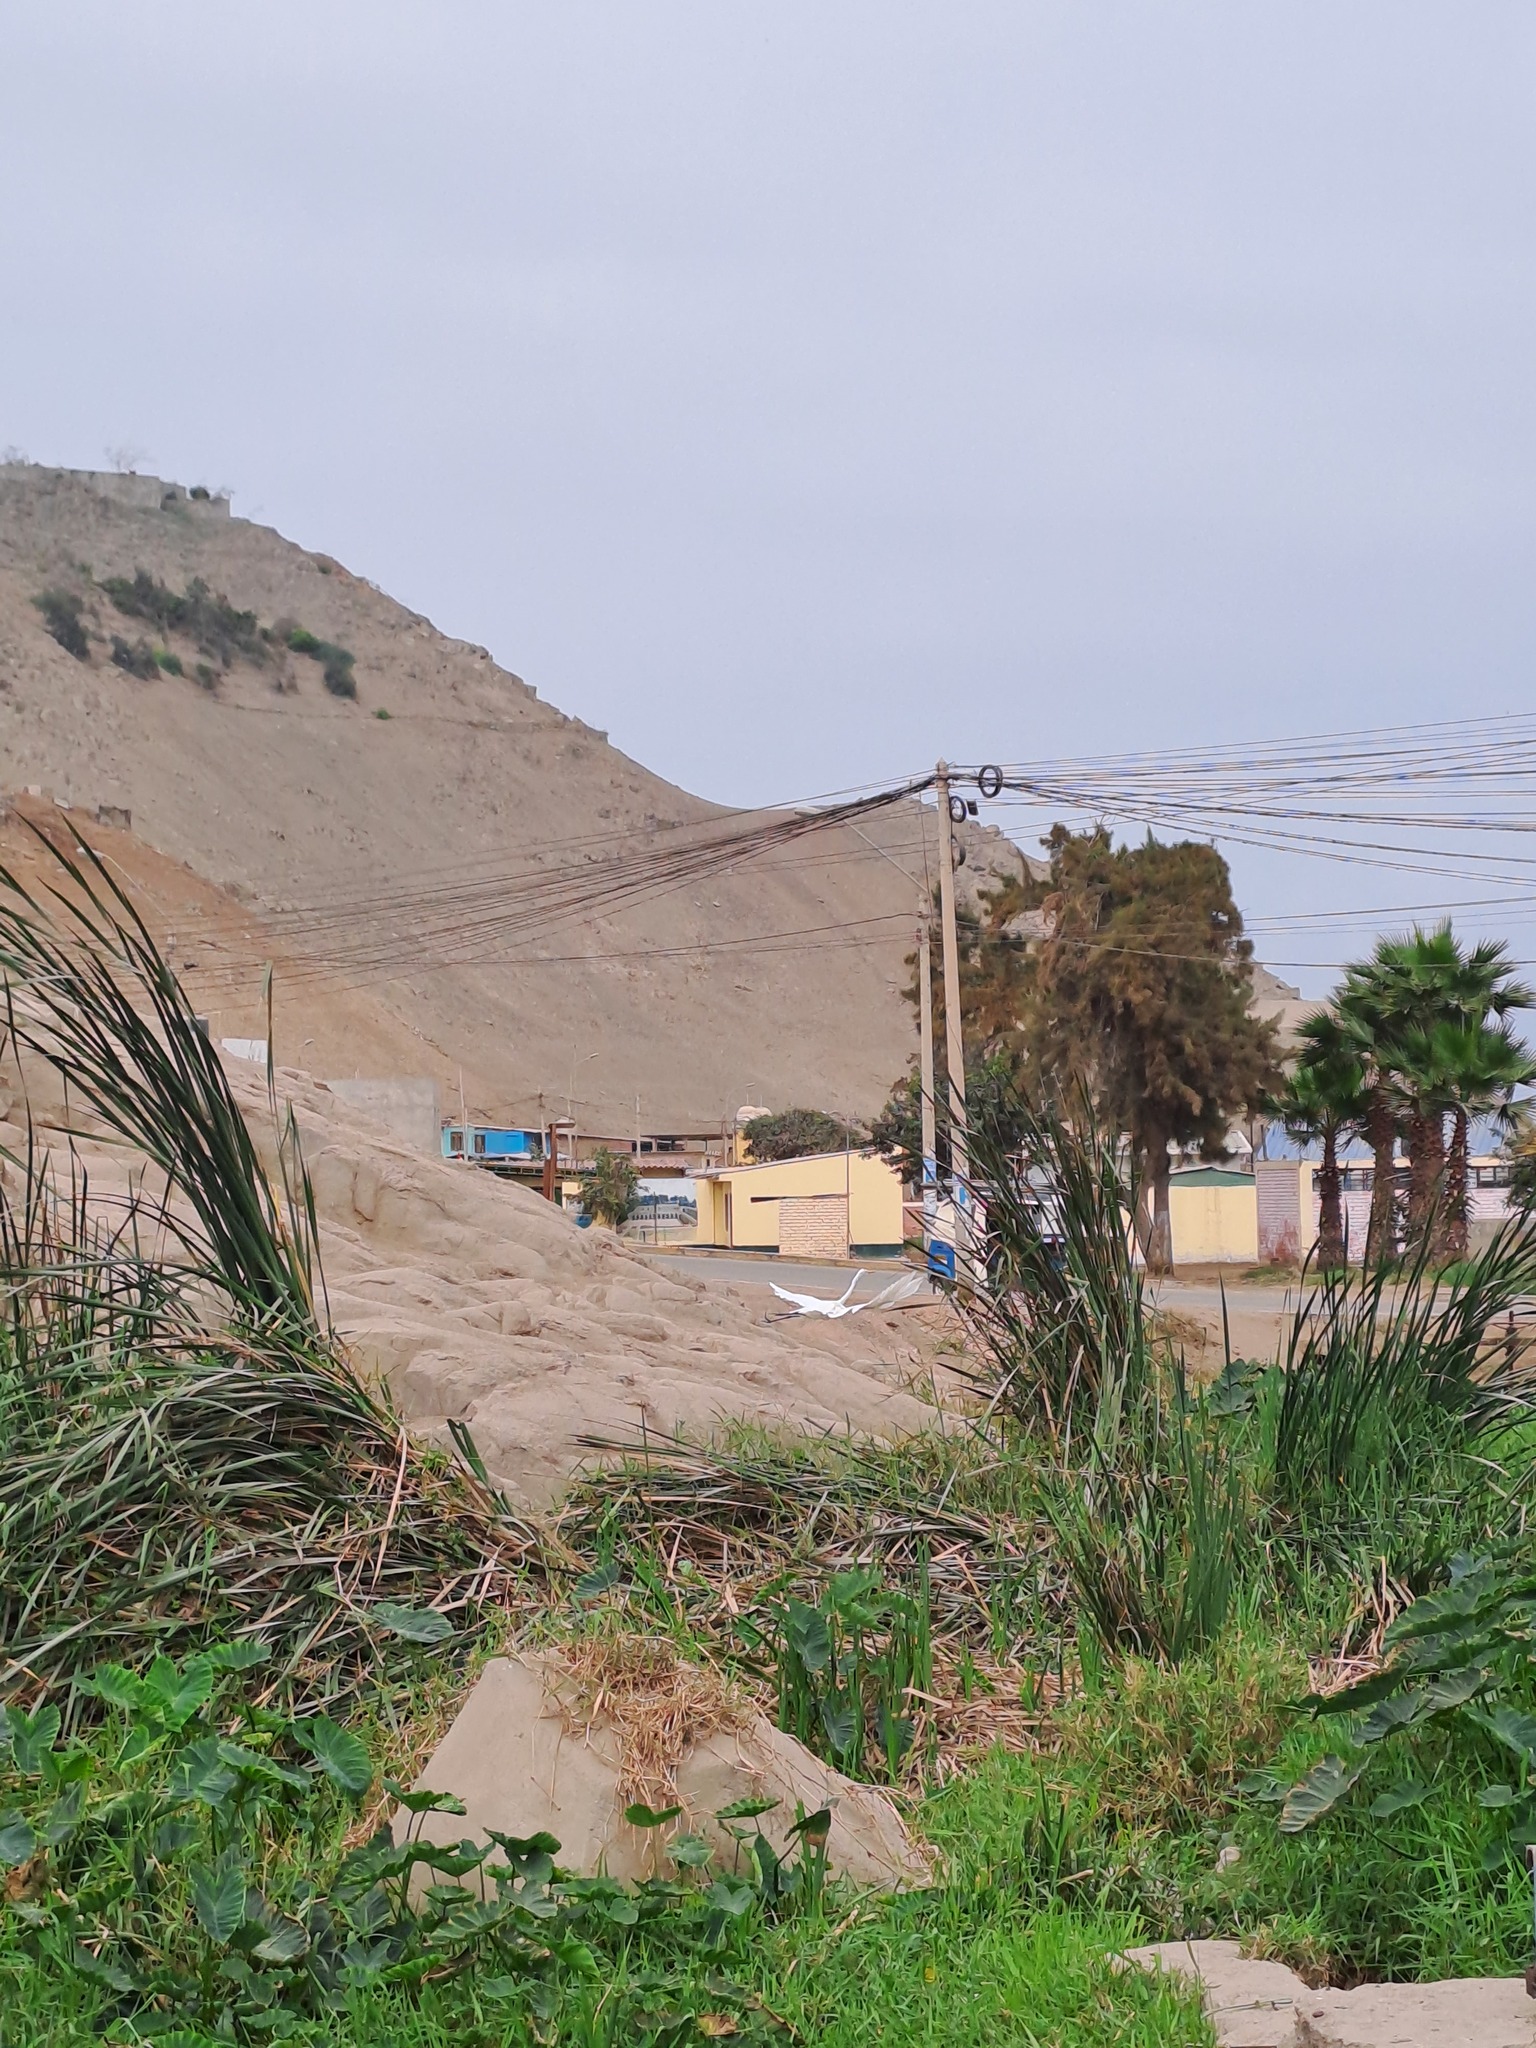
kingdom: Animalia
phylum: Chordata
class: Aves
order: Pelecaniformes
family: Ardeidae
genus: Ardea
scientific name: Ardea alba
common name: Great egret
